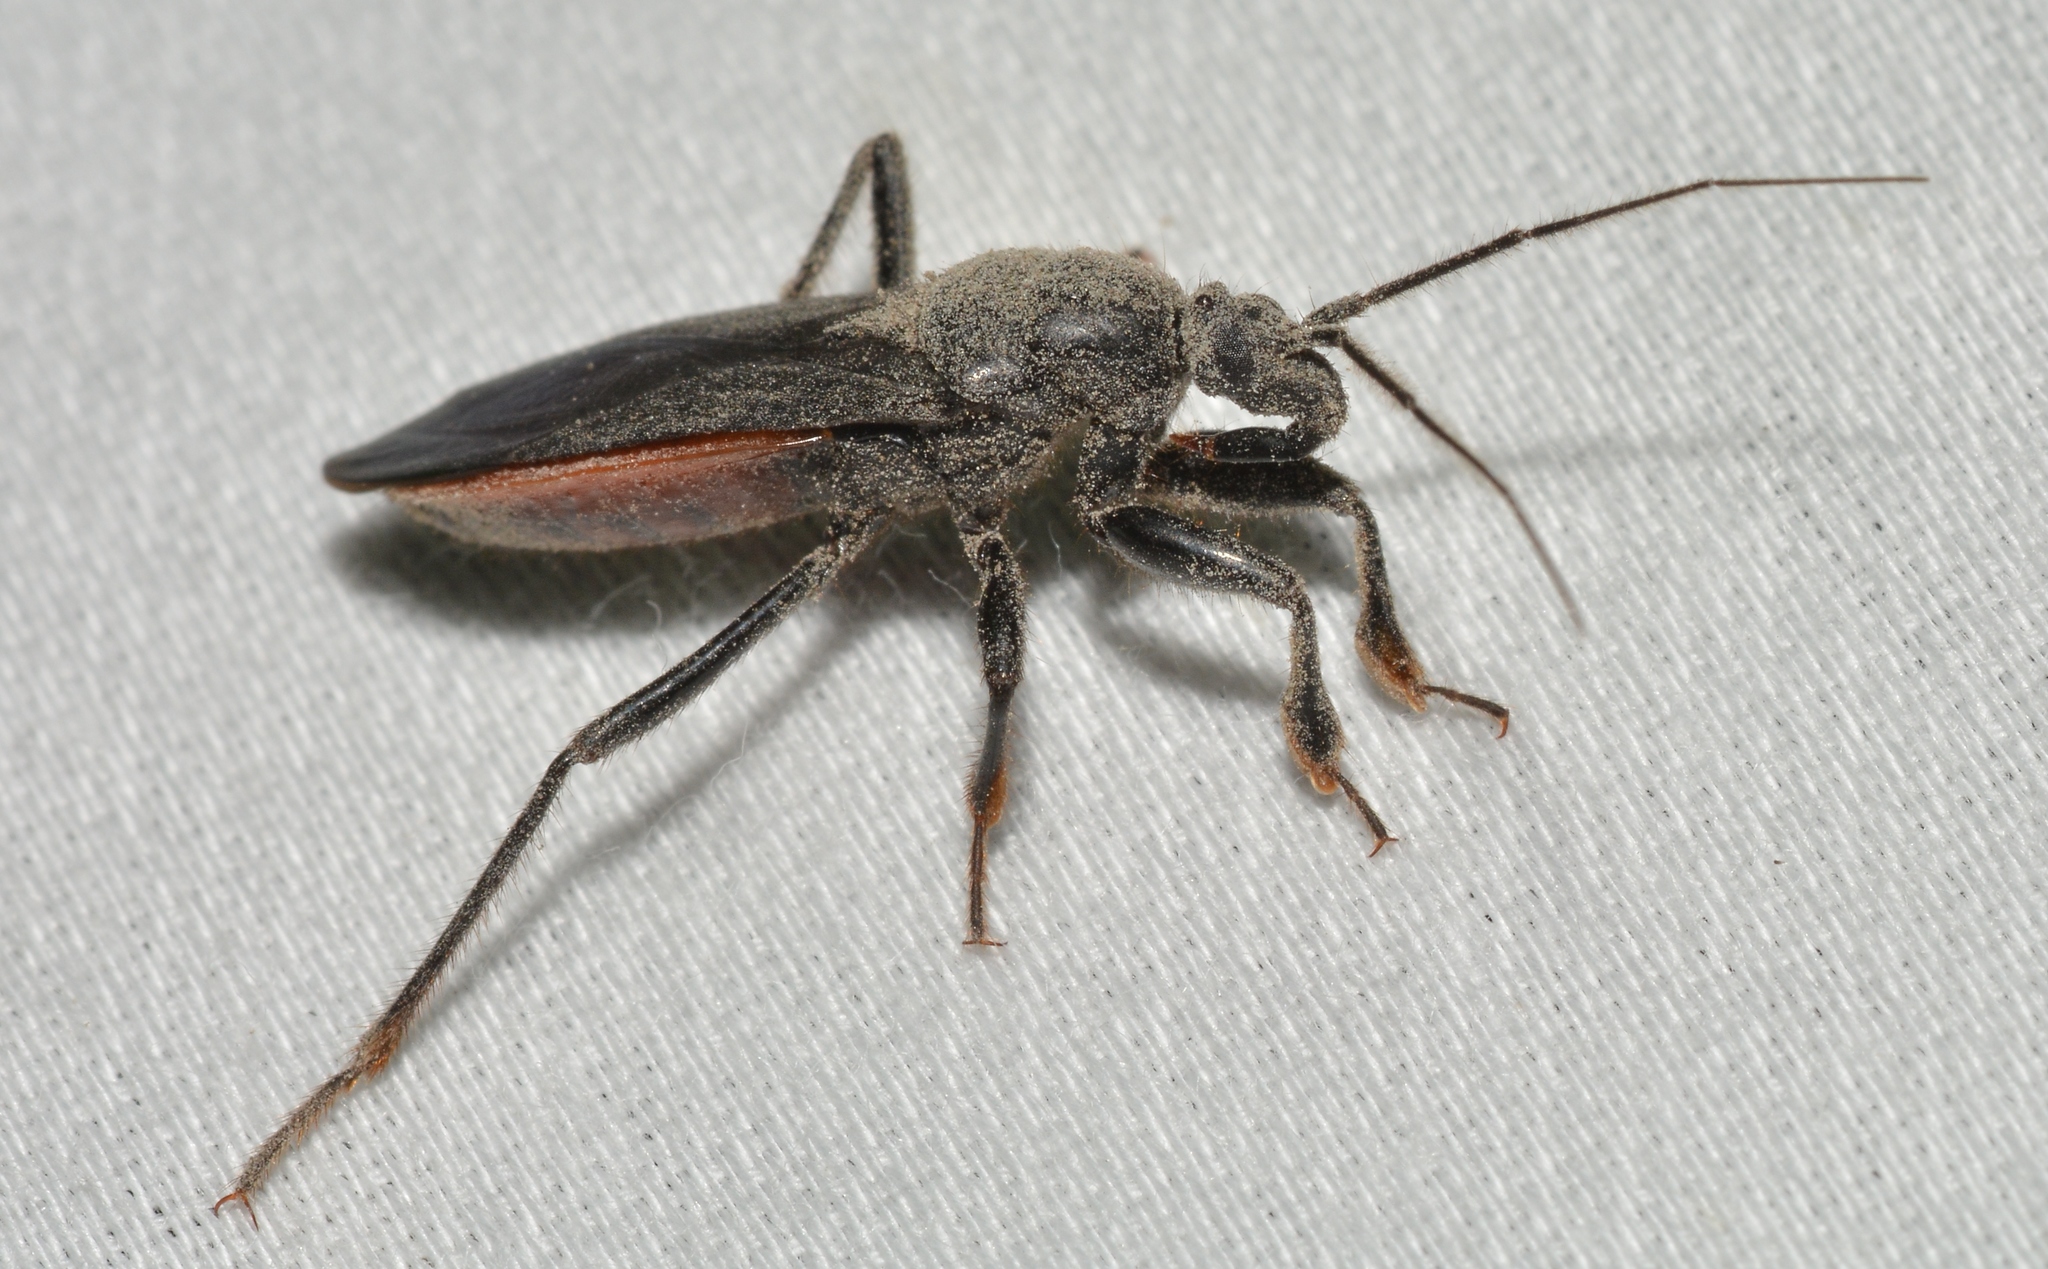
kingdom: Animalia
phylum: Arthropoda
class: Insecta
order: Hemiptera
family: Reduviidae
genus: Melanolestes
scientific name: Melanolestes picipes
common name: Assassin bug
